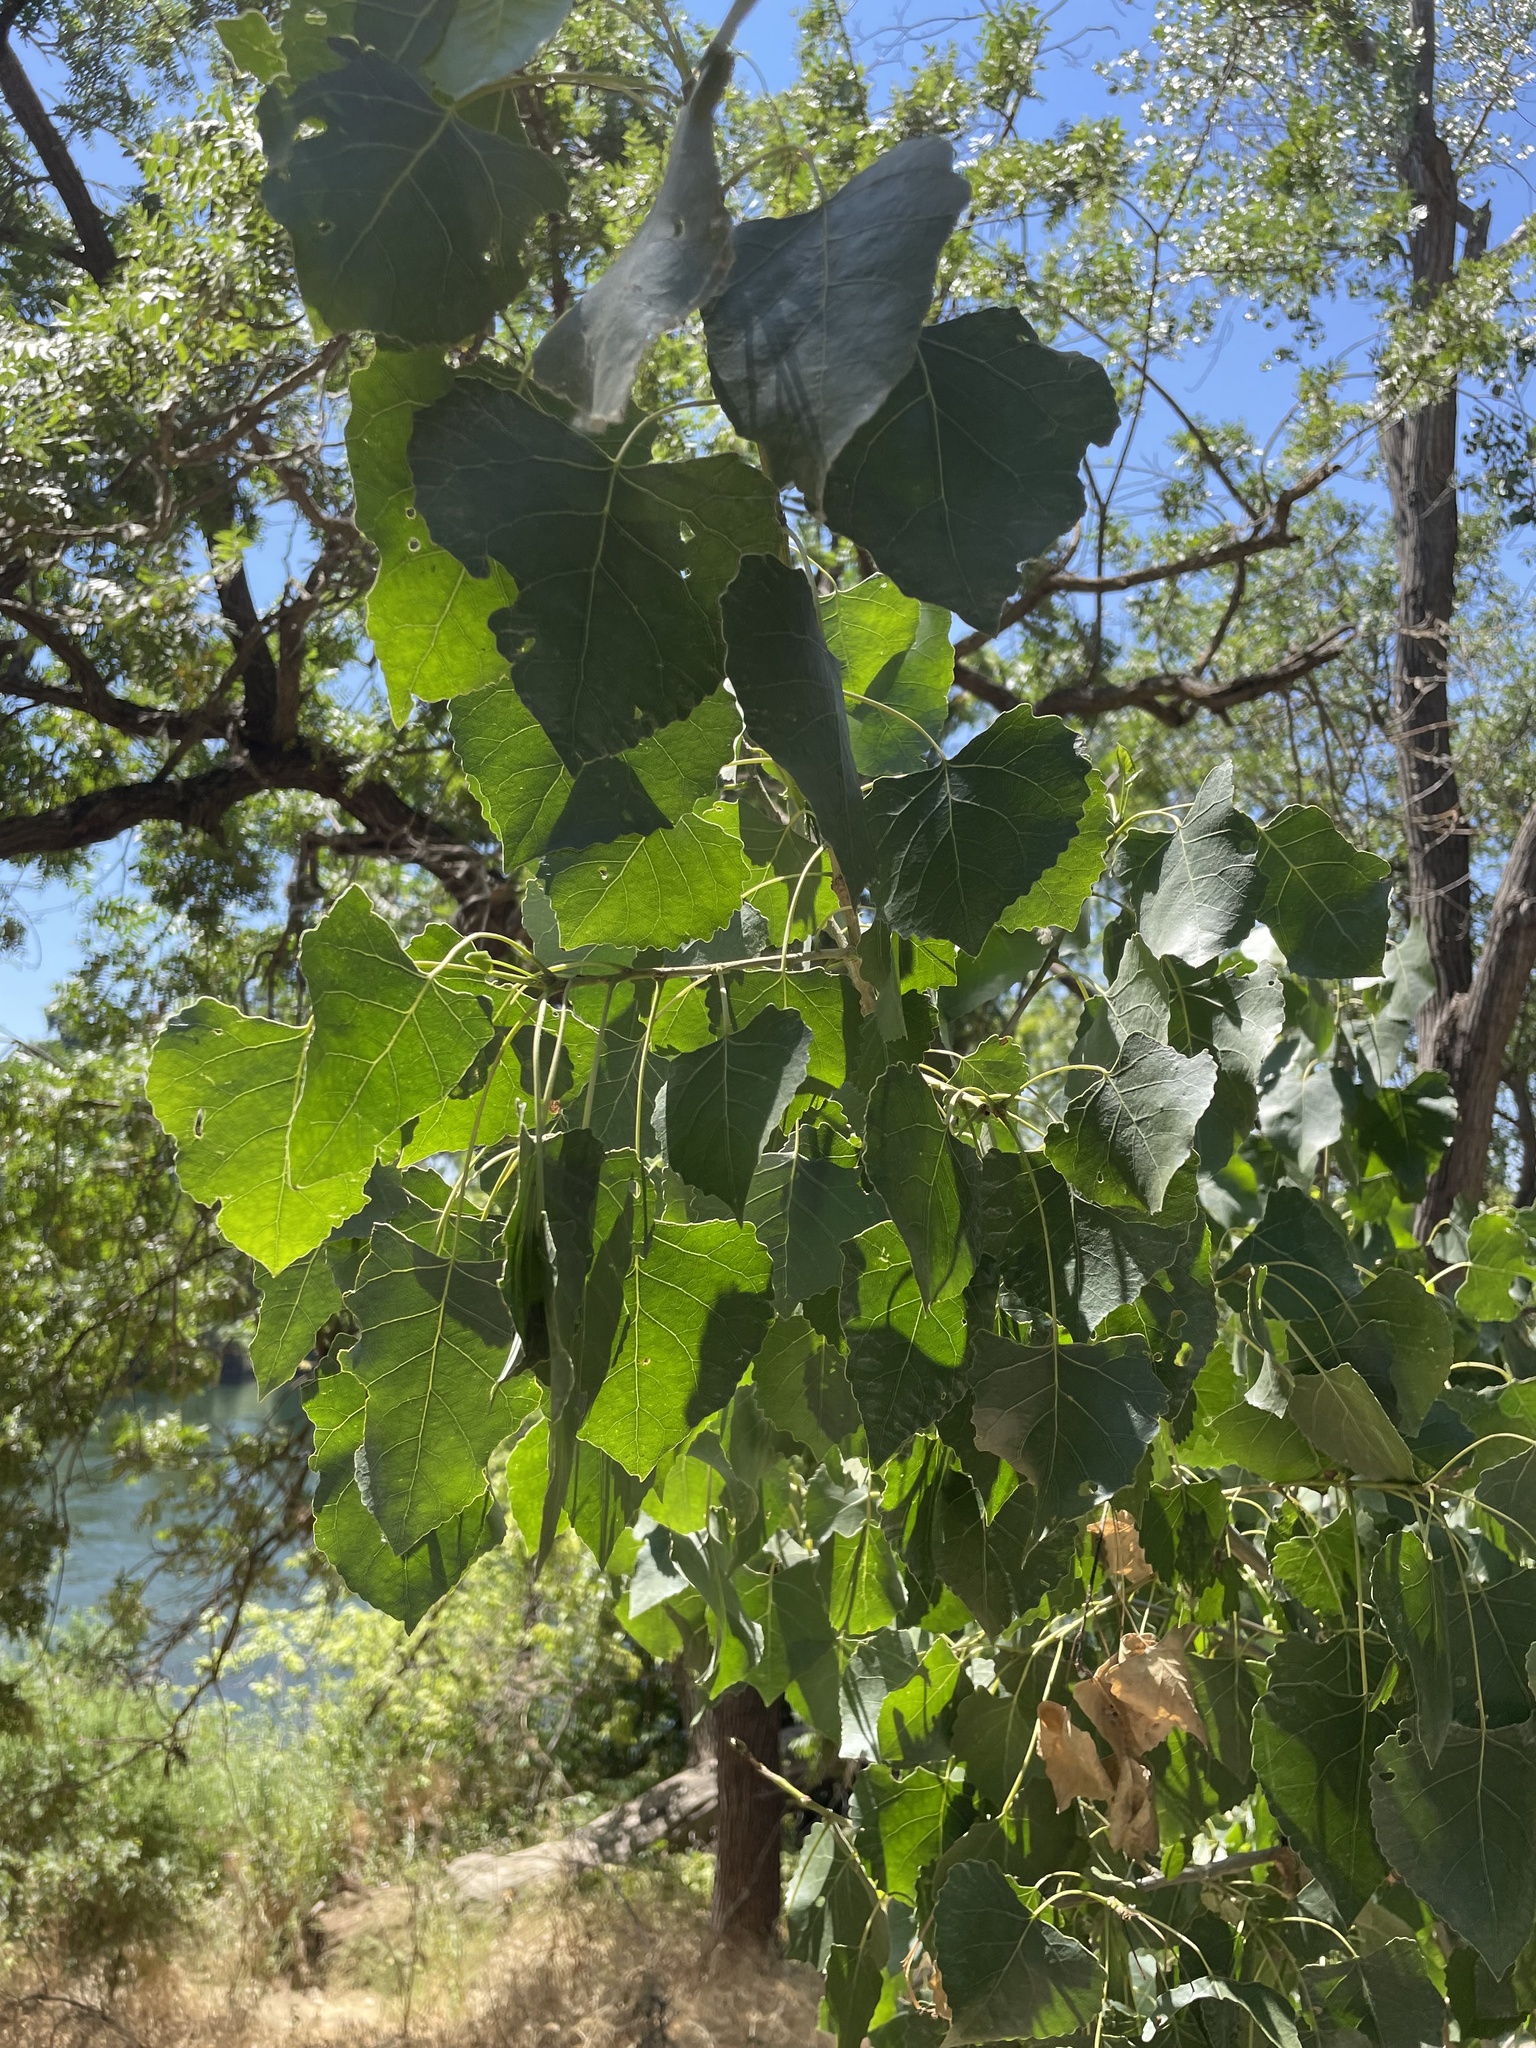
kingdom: Plantae
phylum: Tracheophyta
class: Magnoliopsida
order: Malpighiales
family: Salicaceae
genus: Populus
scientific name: Populus fremontii
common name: Fremont's cottonwood
